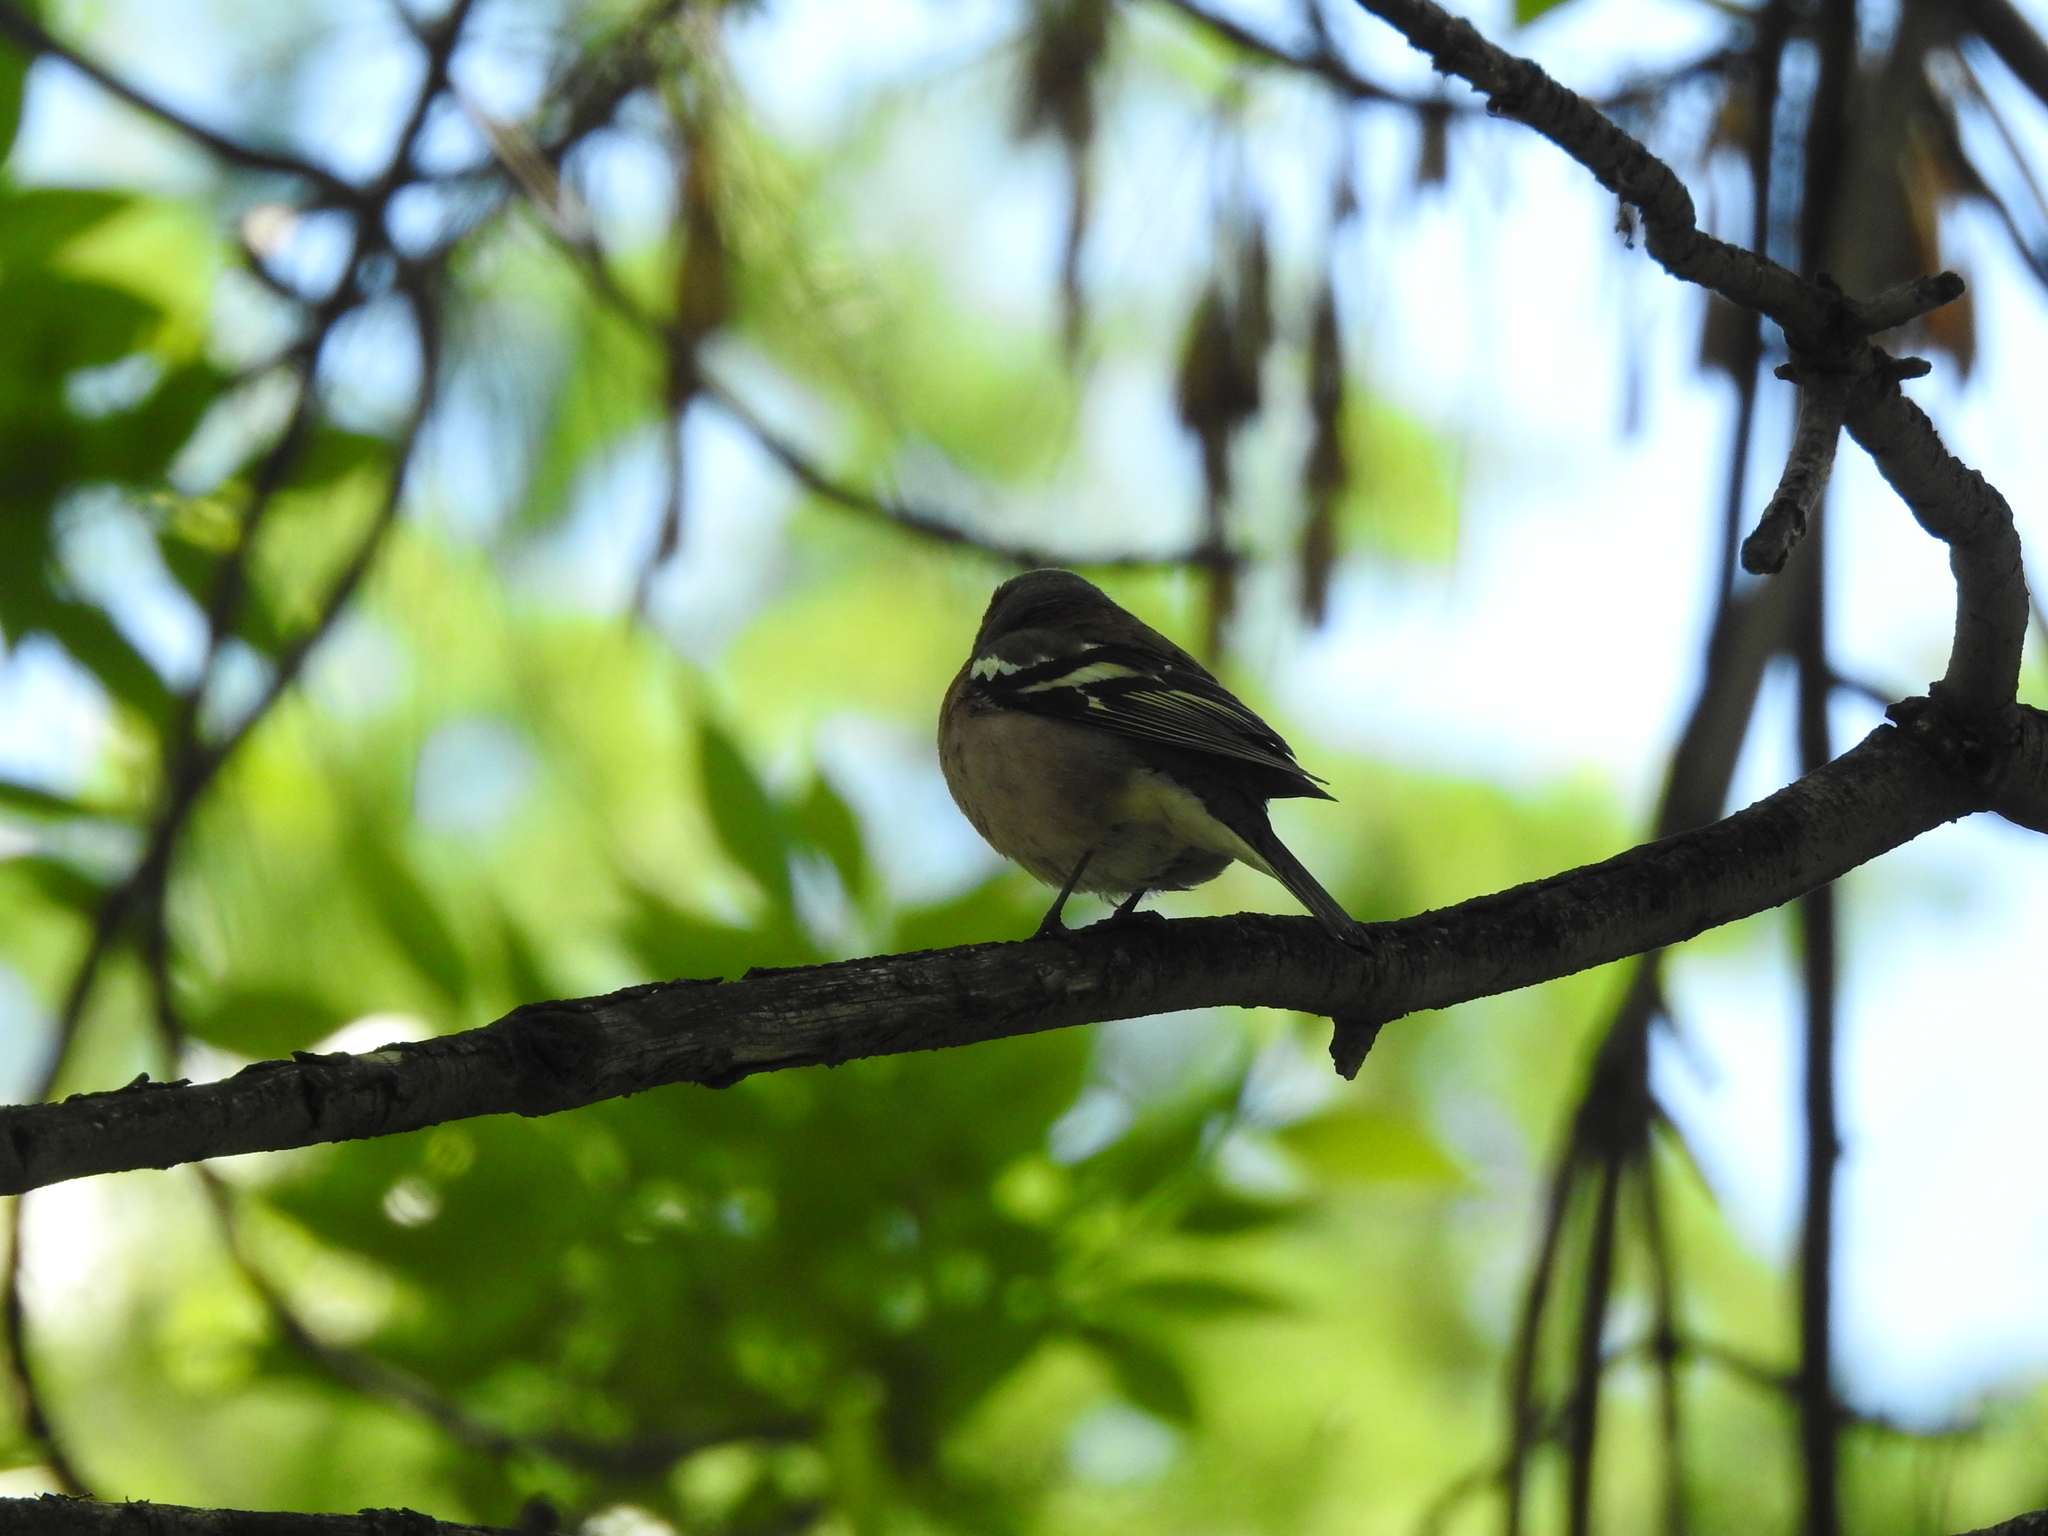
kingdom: Animalia
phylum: Chordata
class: Aves
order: Passeriformes
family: Fringillidae
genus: Fringilla
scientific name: Fringilla coelebs
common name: Common chaffinch
